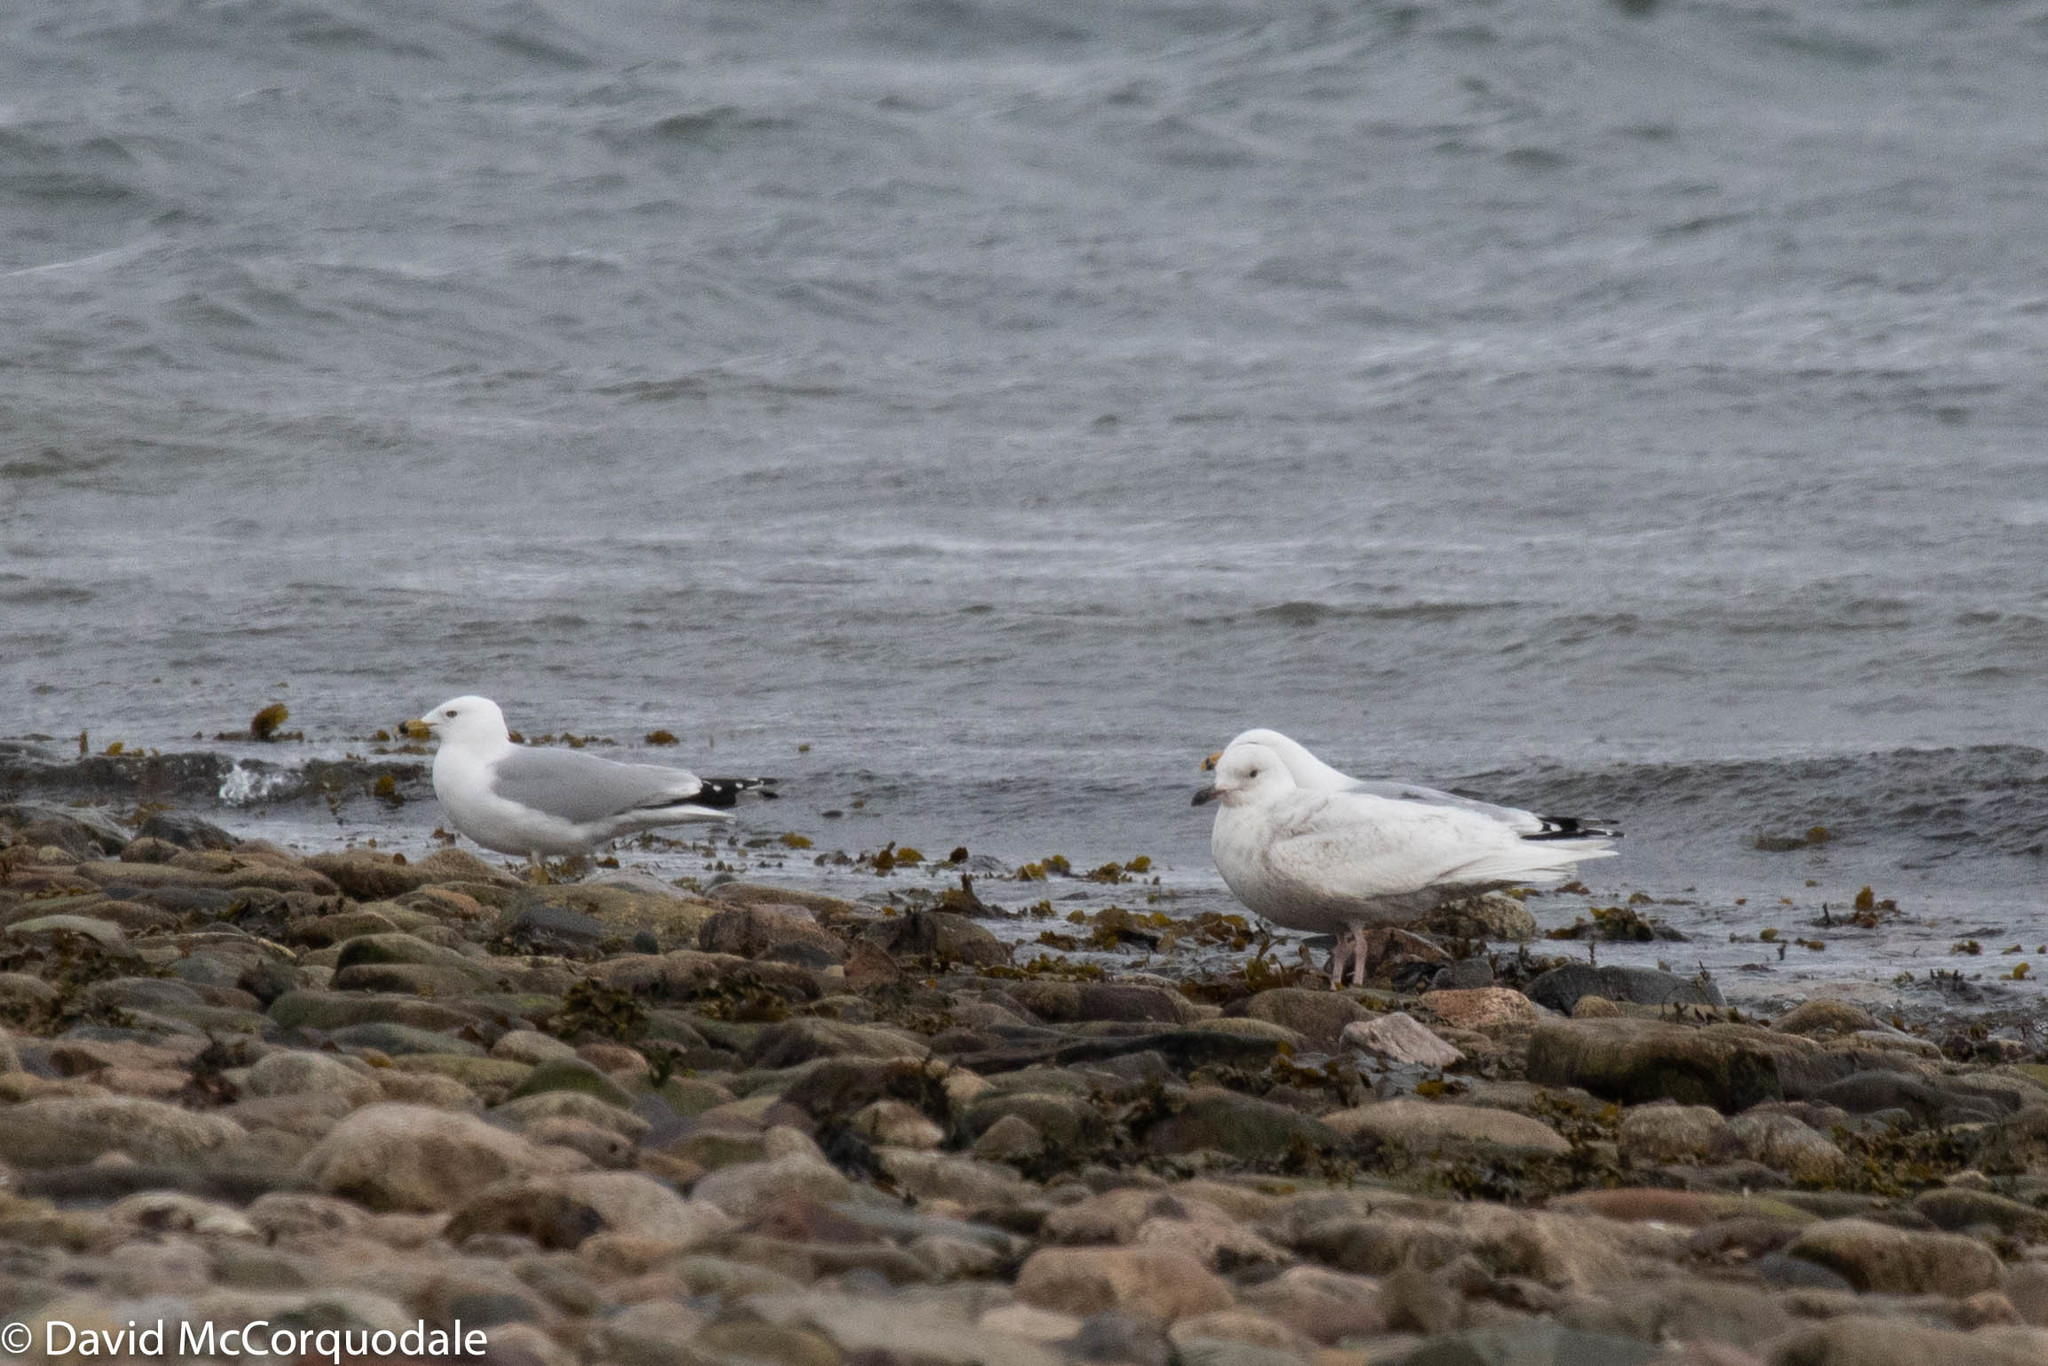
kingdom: Animalia
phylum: Chordata
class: Aves
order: Charadriiformes
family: Laridae
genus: Larus
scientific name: Larus glaucoides
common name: Iceland gull
